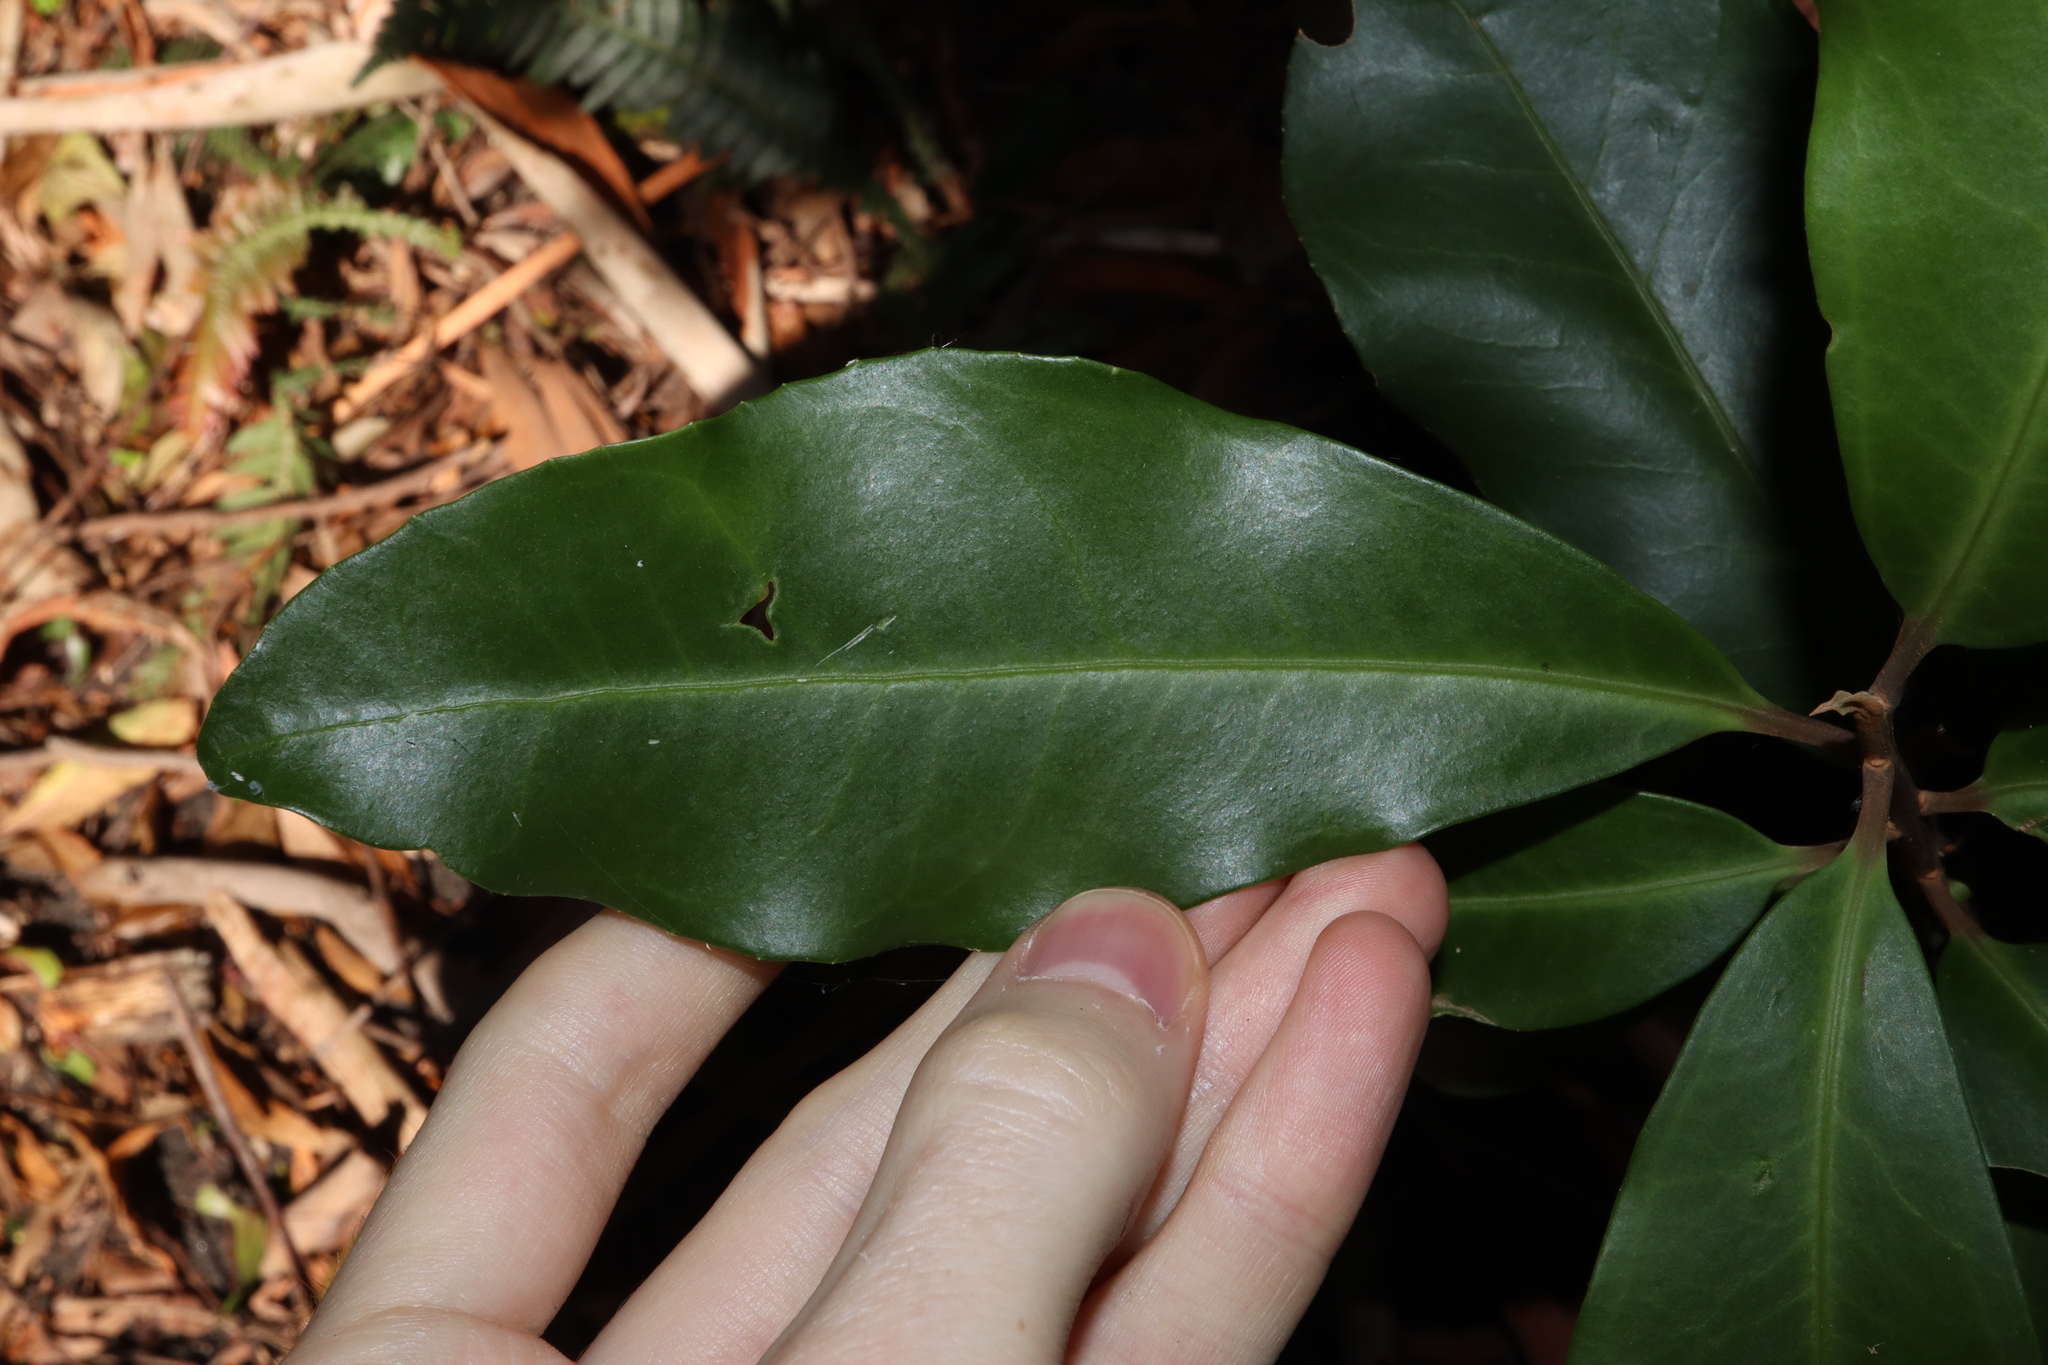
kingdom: Plantae
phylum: Tracheophyta
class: Magnoliopsida
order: Ericales
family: Primulaceae
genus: Myrsine
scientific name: Myrsine howittiana
